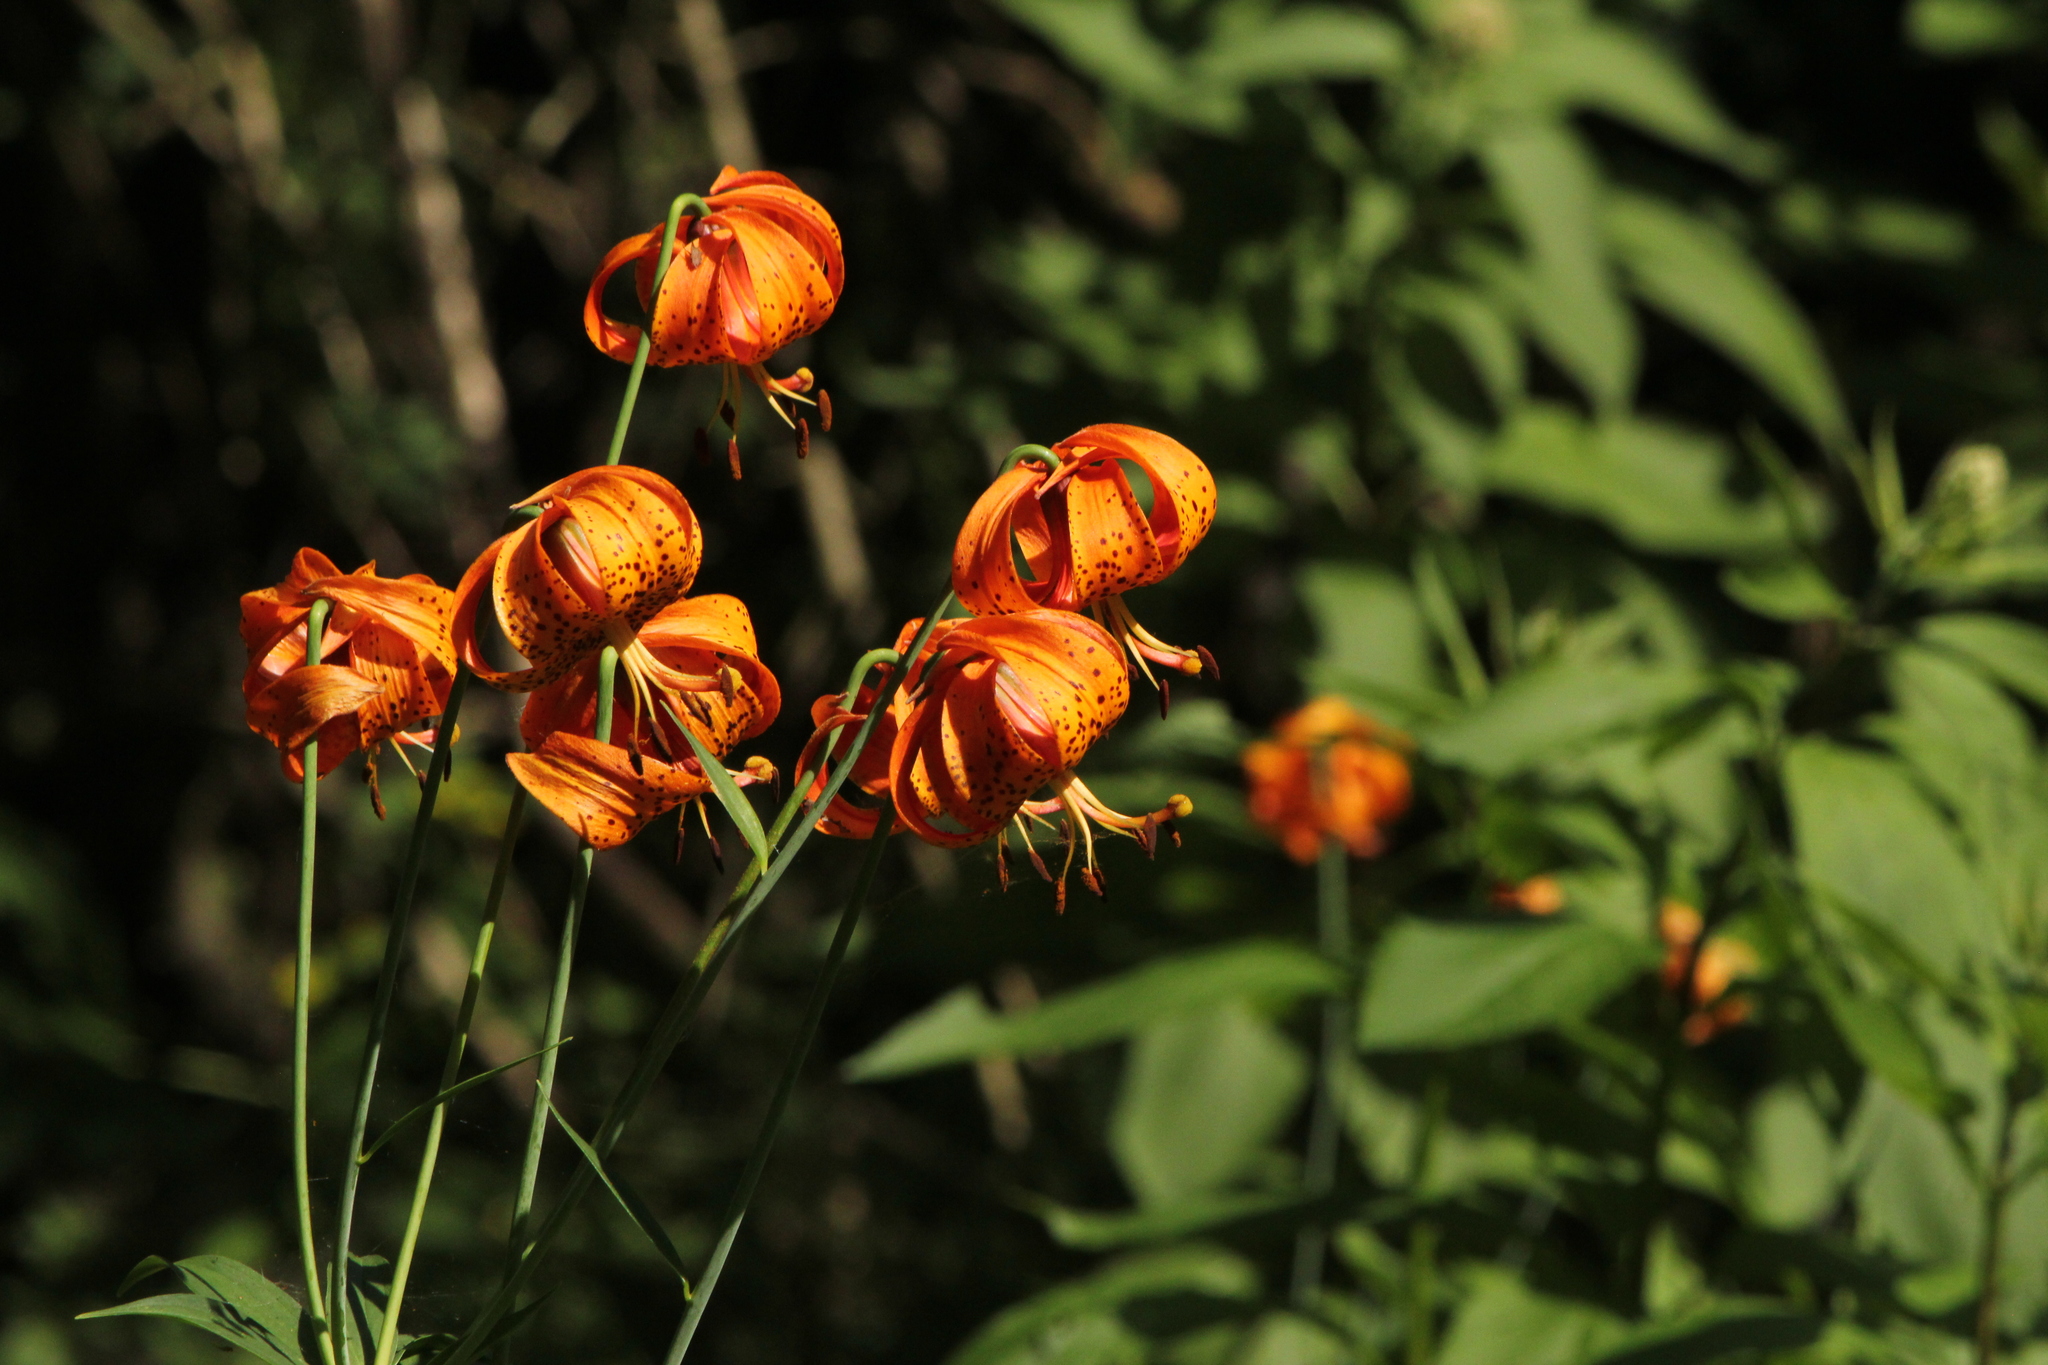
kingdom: Plantae
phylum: Tracheophyta
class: Liliopsida
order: Liliales
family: Liliaceae
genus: Lilium
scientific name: Lilium michiganense
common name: Michigan lily
